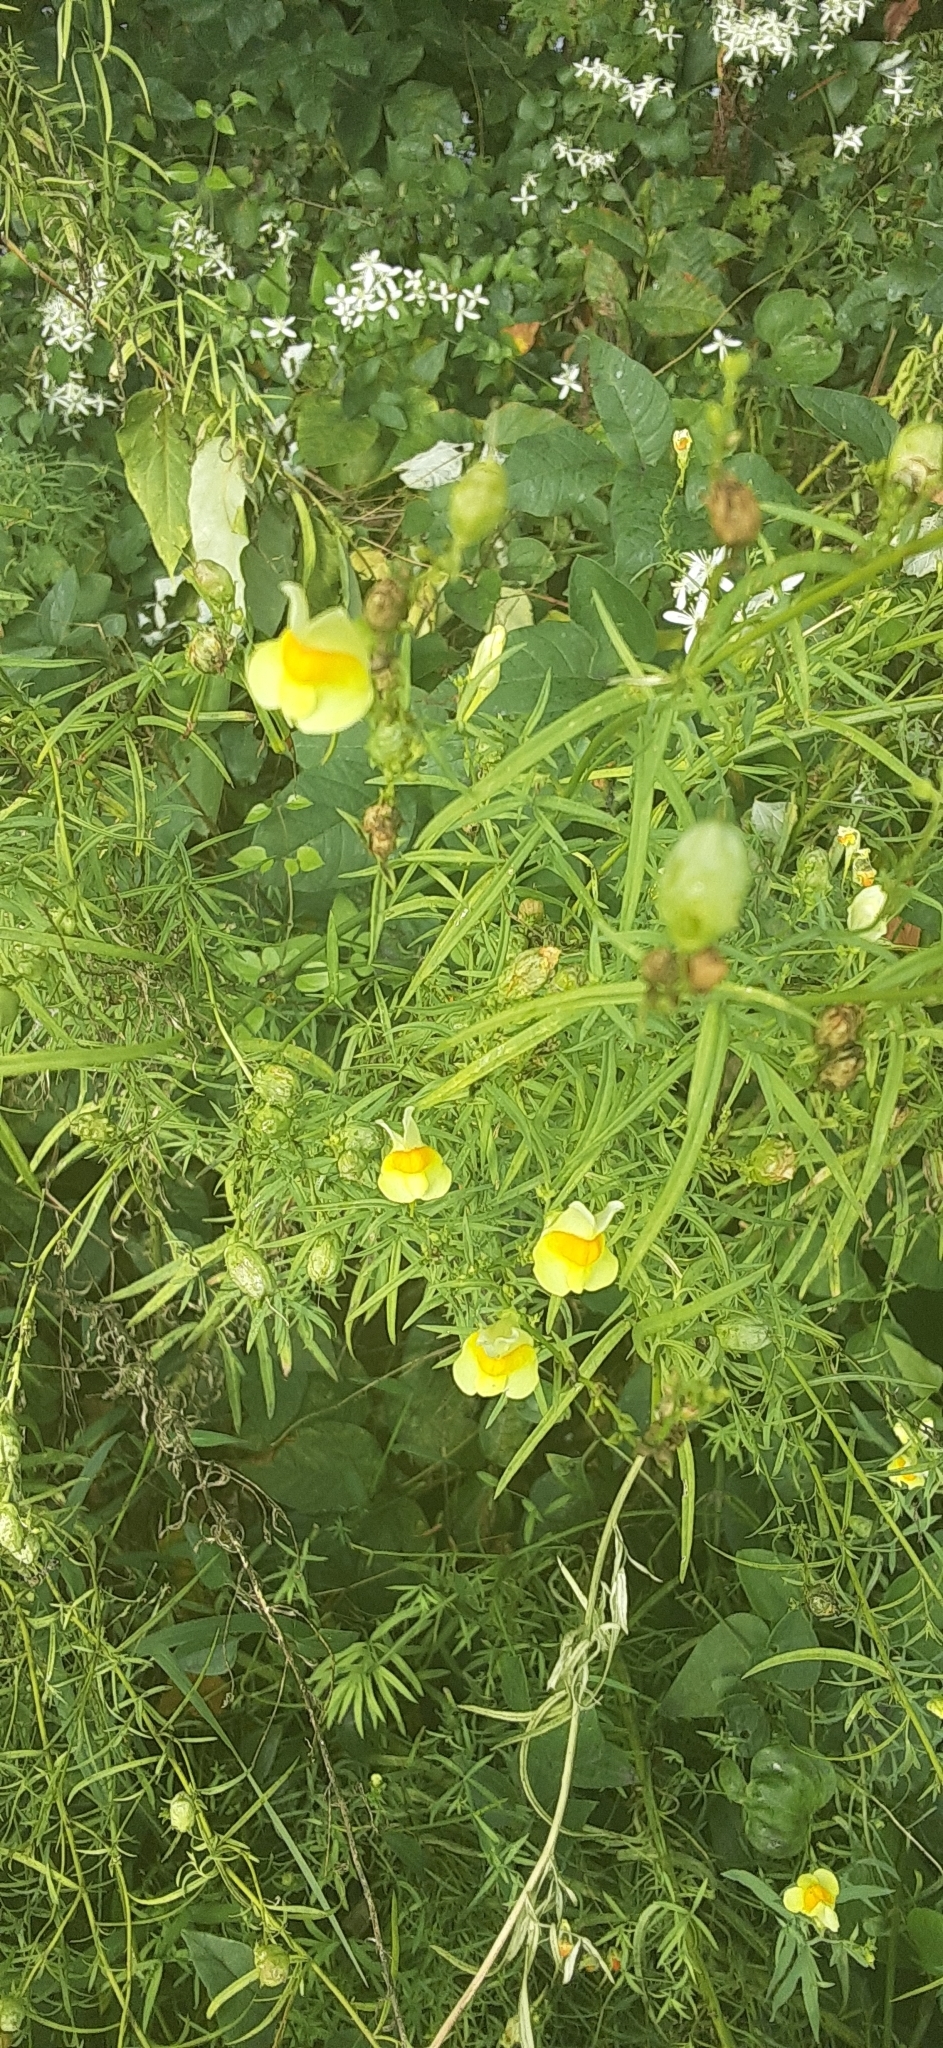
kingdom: Plantae
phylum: Tracheophyta
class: Magnoliopsida
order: Lamiales
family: Plantaginaceae
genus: Linaria
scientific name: Linaria vulgaris
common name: Butter and eggs
